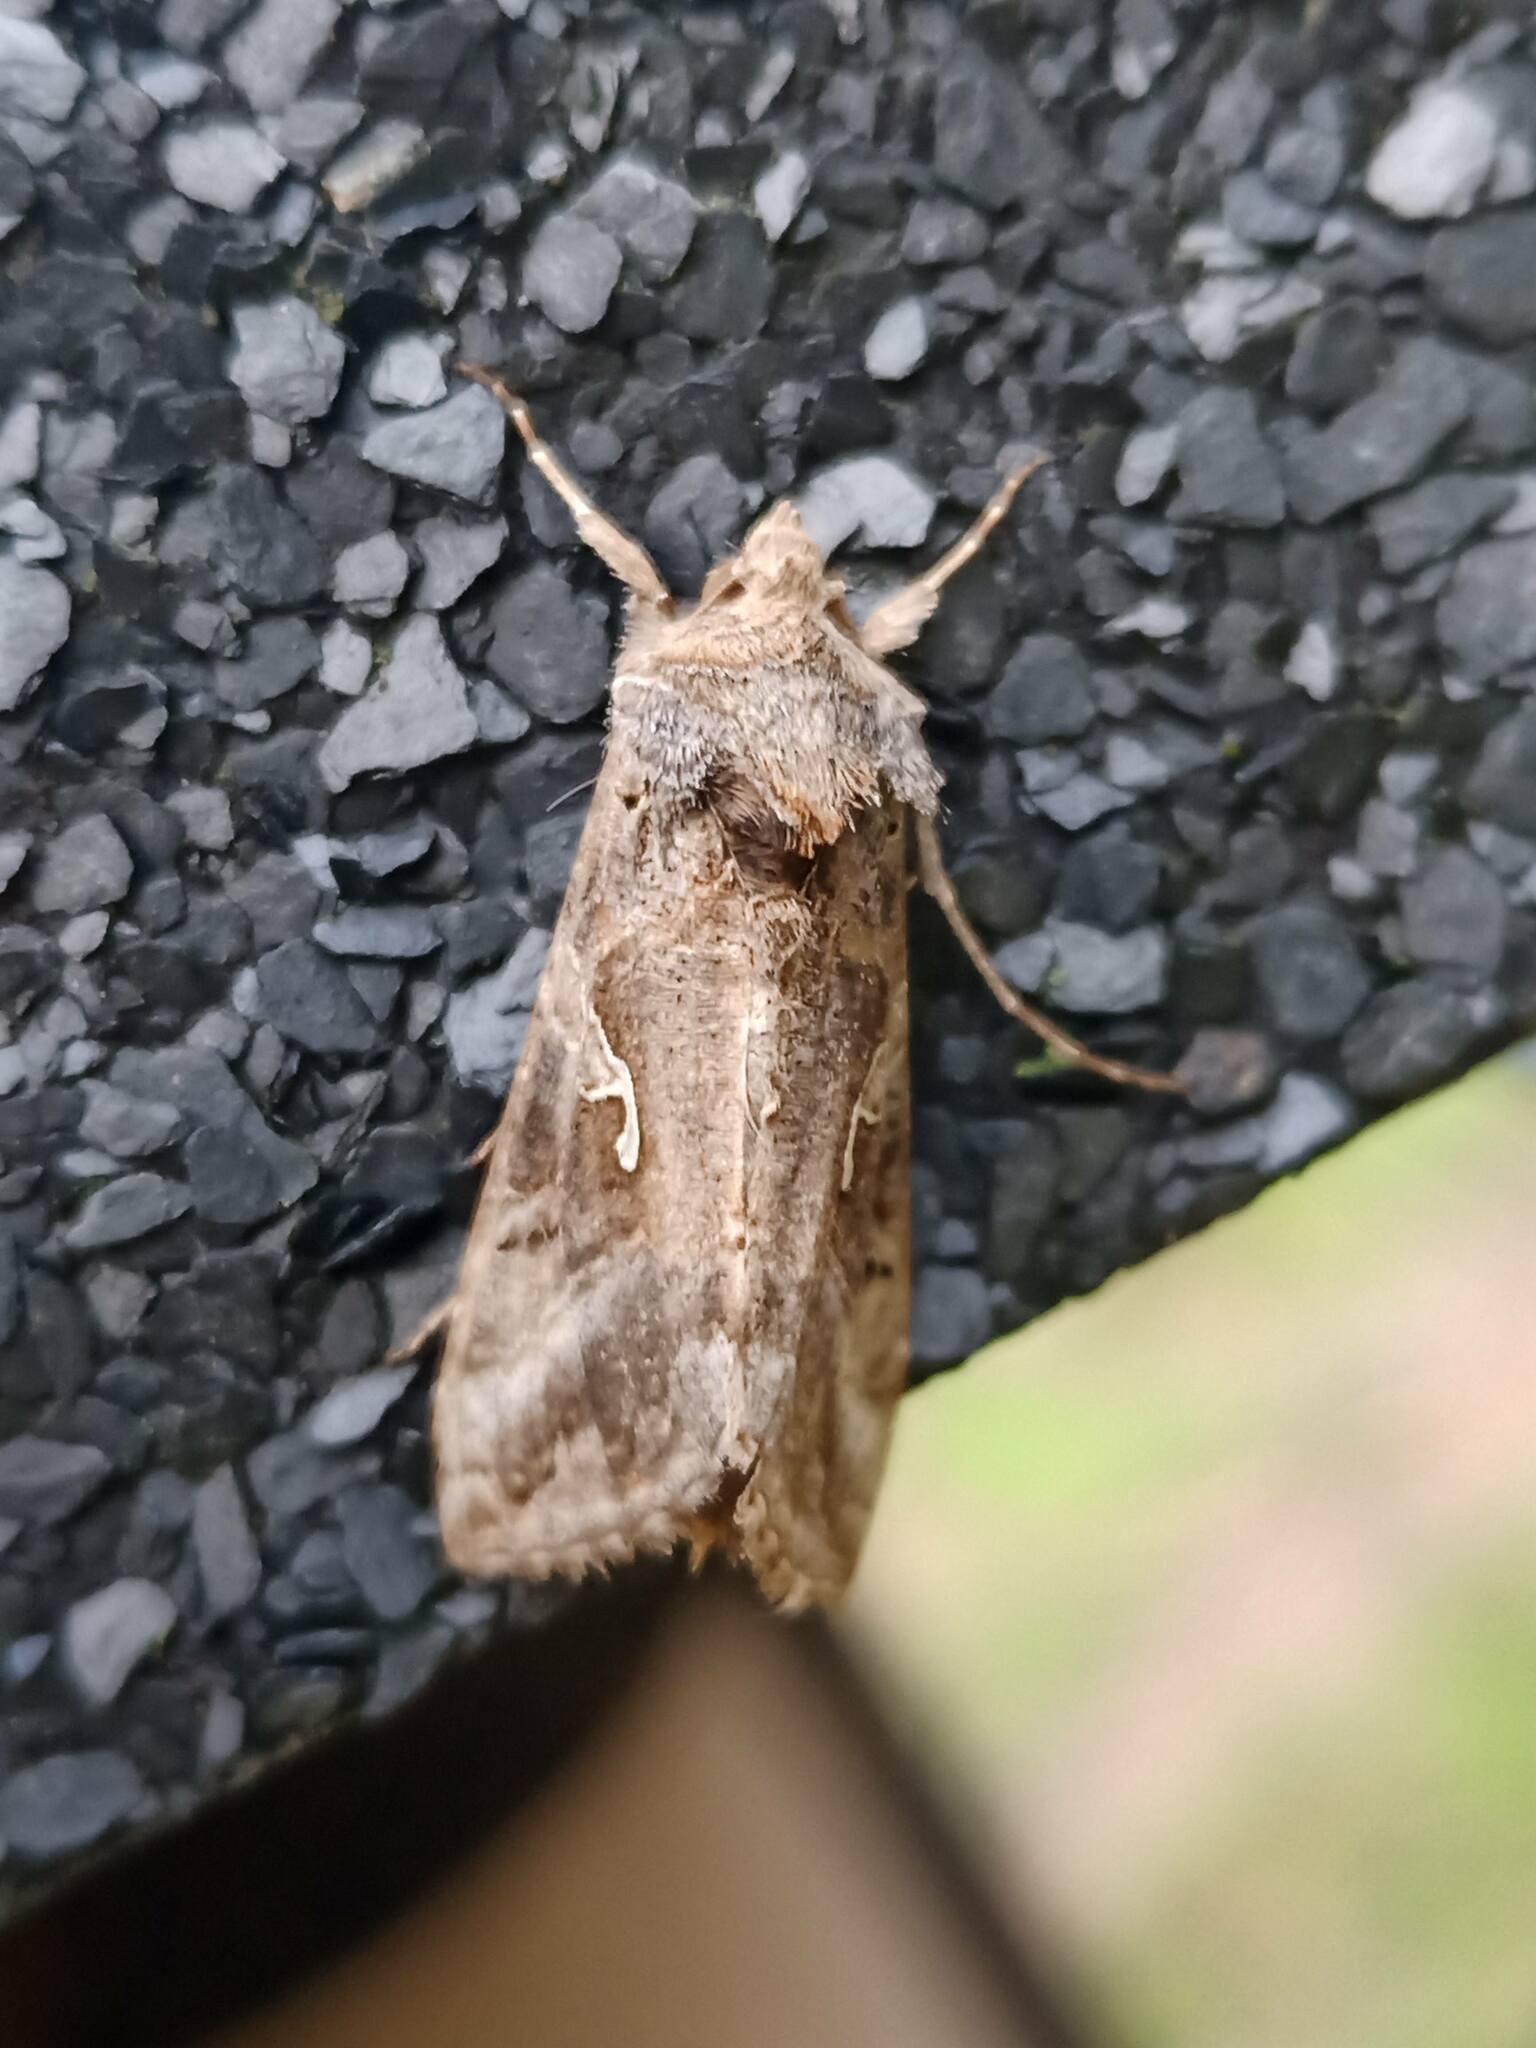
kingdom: Animalia
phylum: Arthropoda
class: Insecta
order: Lepidoptera
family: Noctuidae
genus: Autographa
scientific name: Autographa gamma
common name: Silver y
